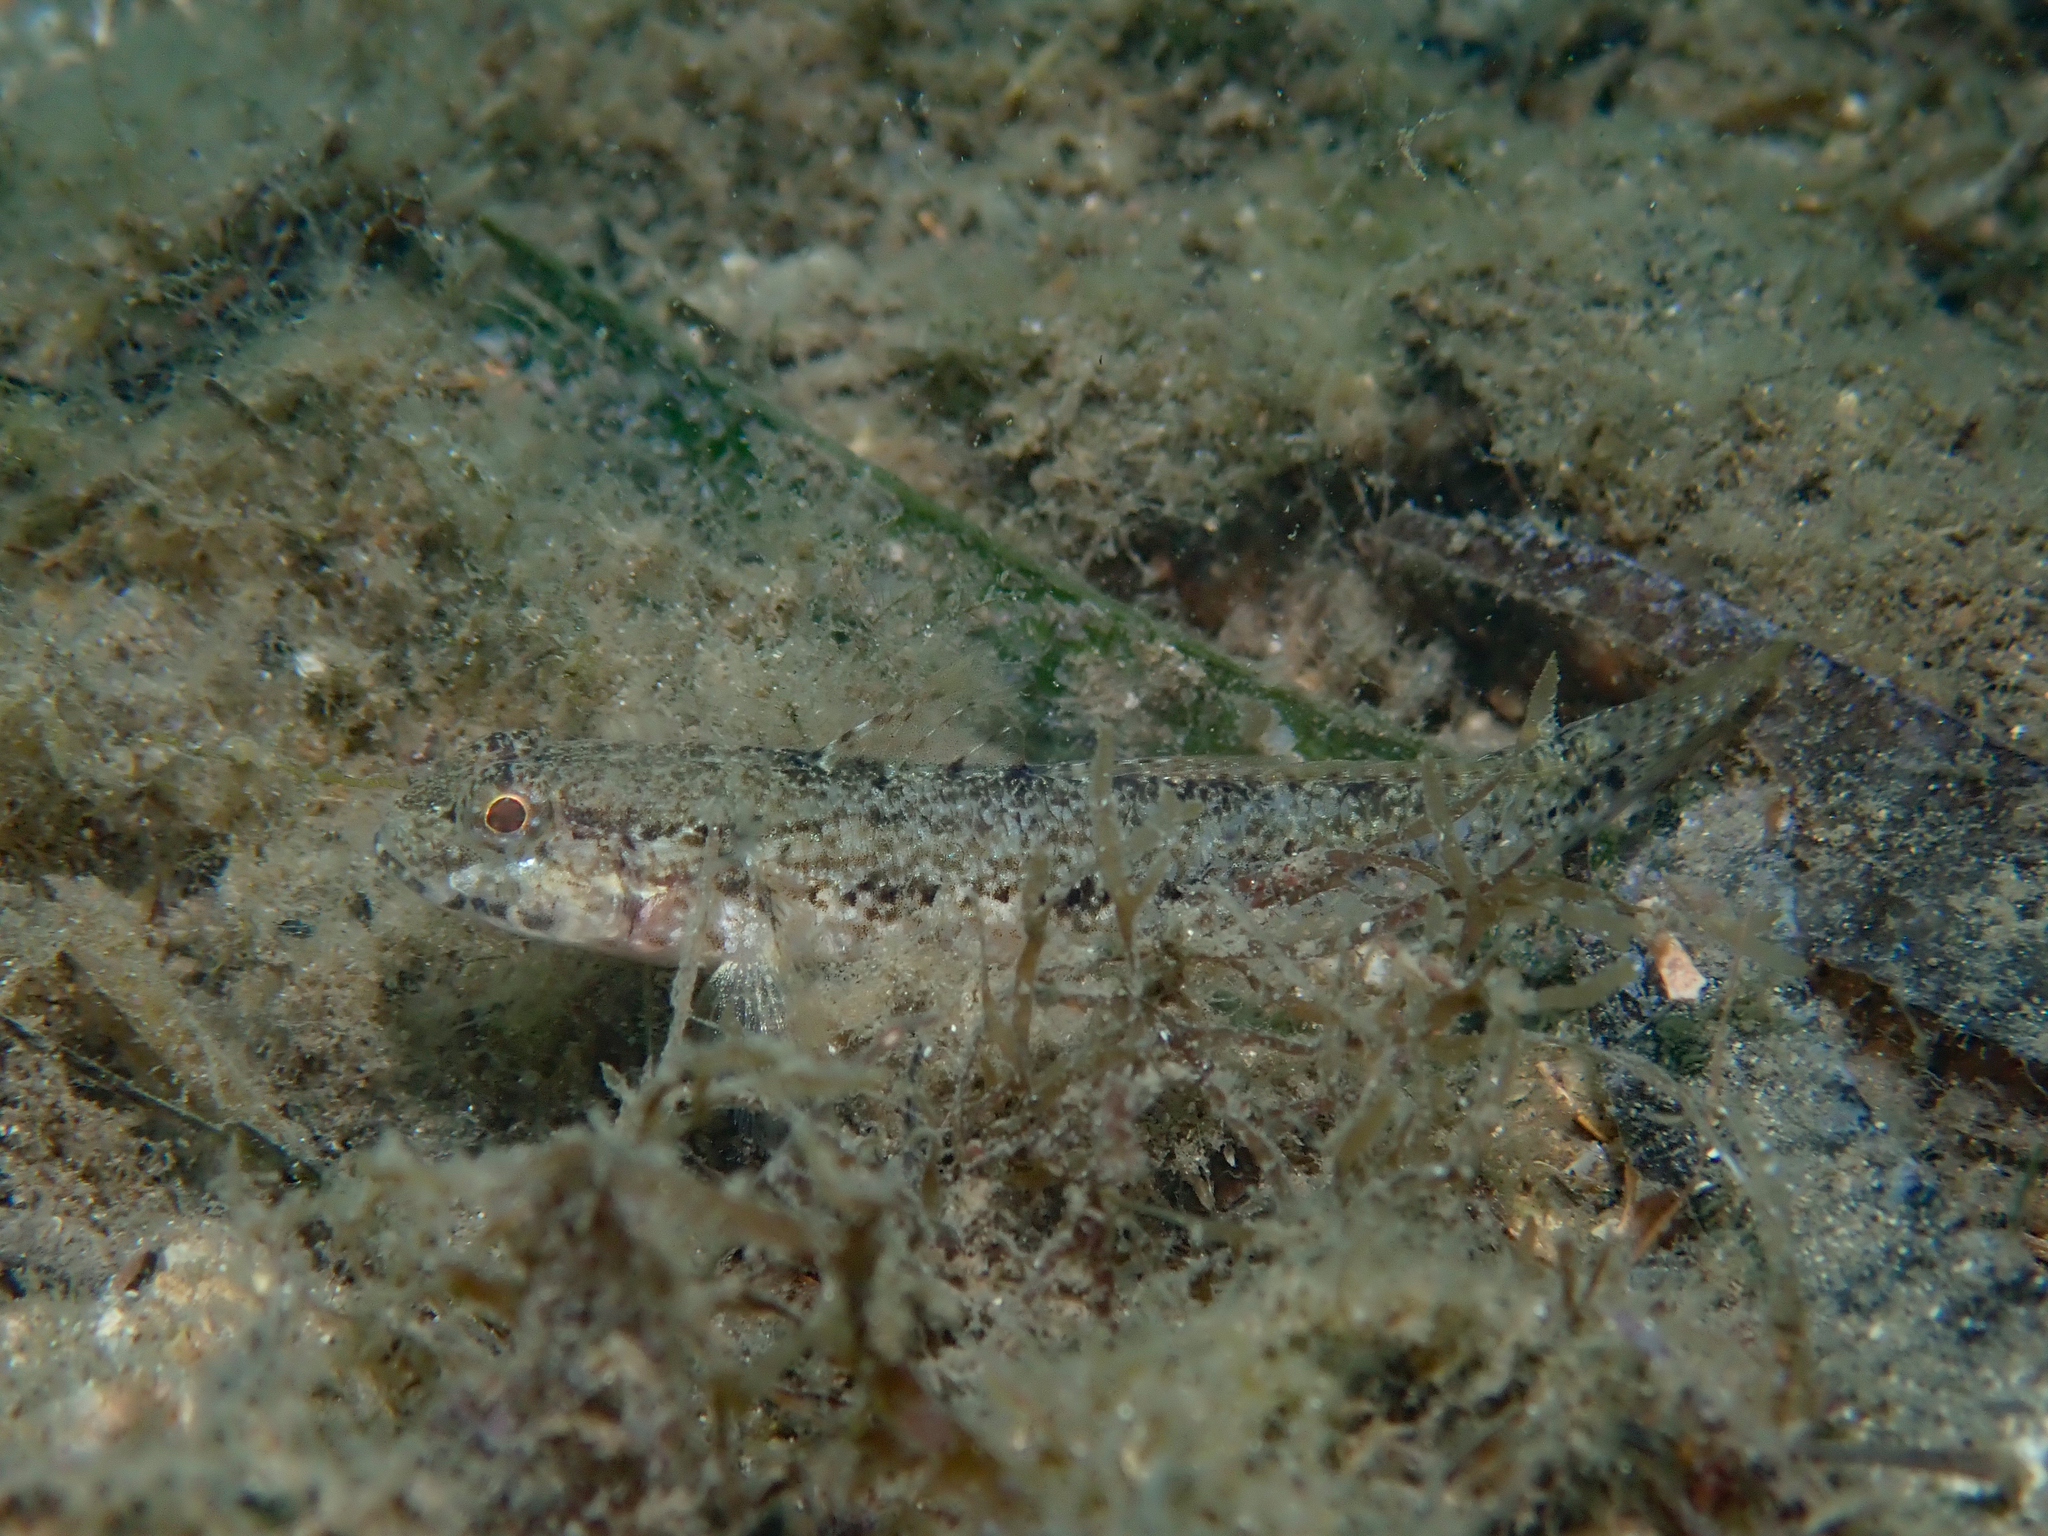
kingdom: Animalia
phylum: Chordata
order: Perciformes
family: Gobiidae
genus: Gobius
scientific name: Gobius couchi
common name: Couch's goby
